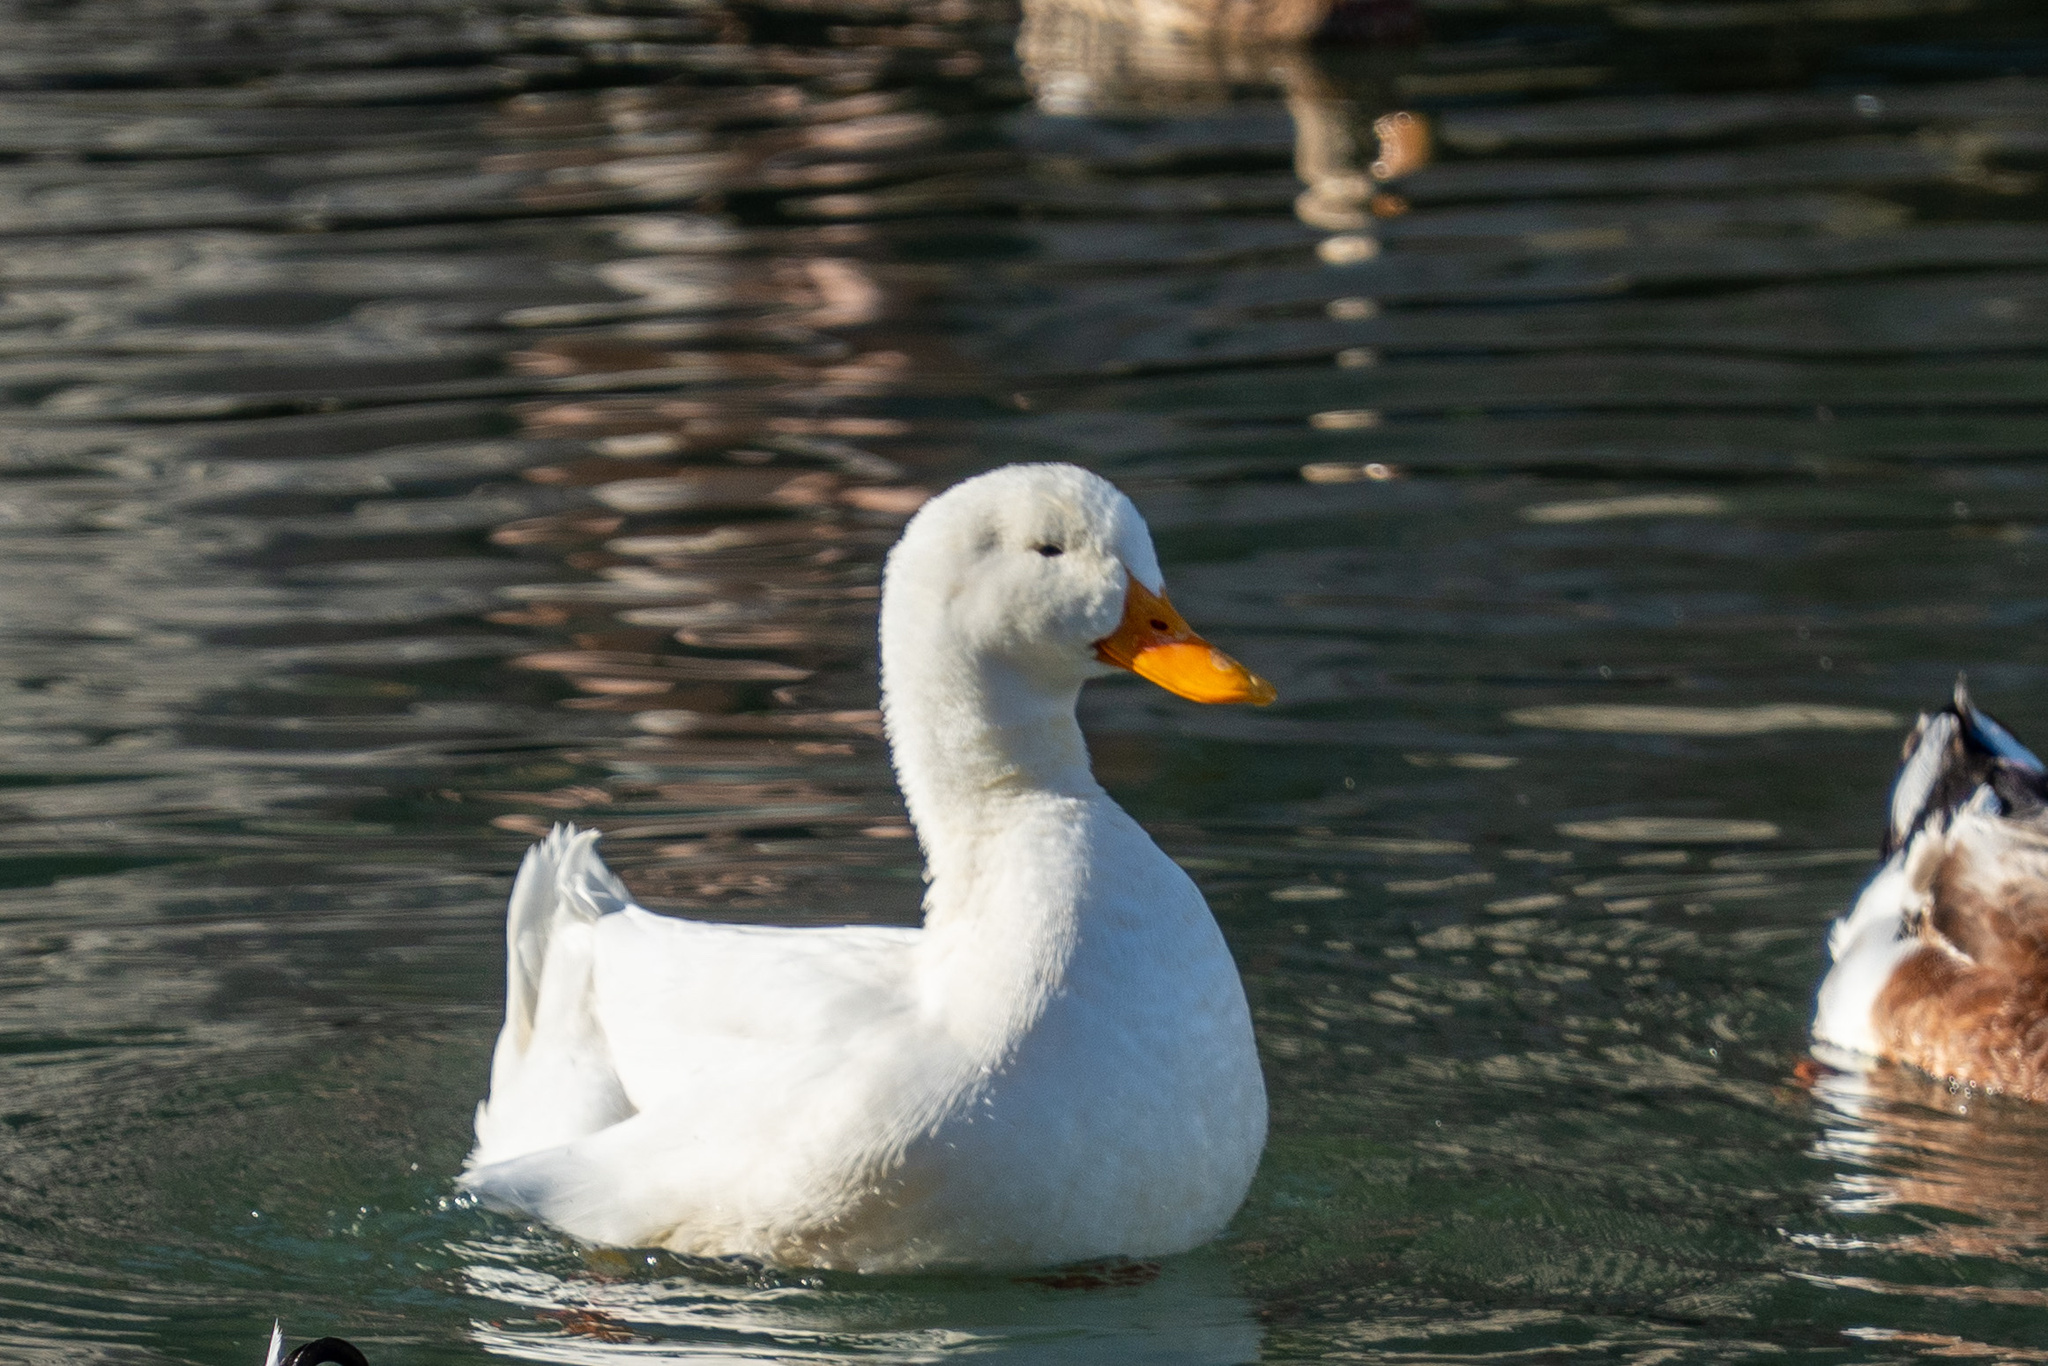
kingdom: Animalia
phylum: Chordata
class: Aves
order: Anseriformes
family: Anatidae
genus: Anas
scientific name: Anas platyrhynchos
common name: Mallard
